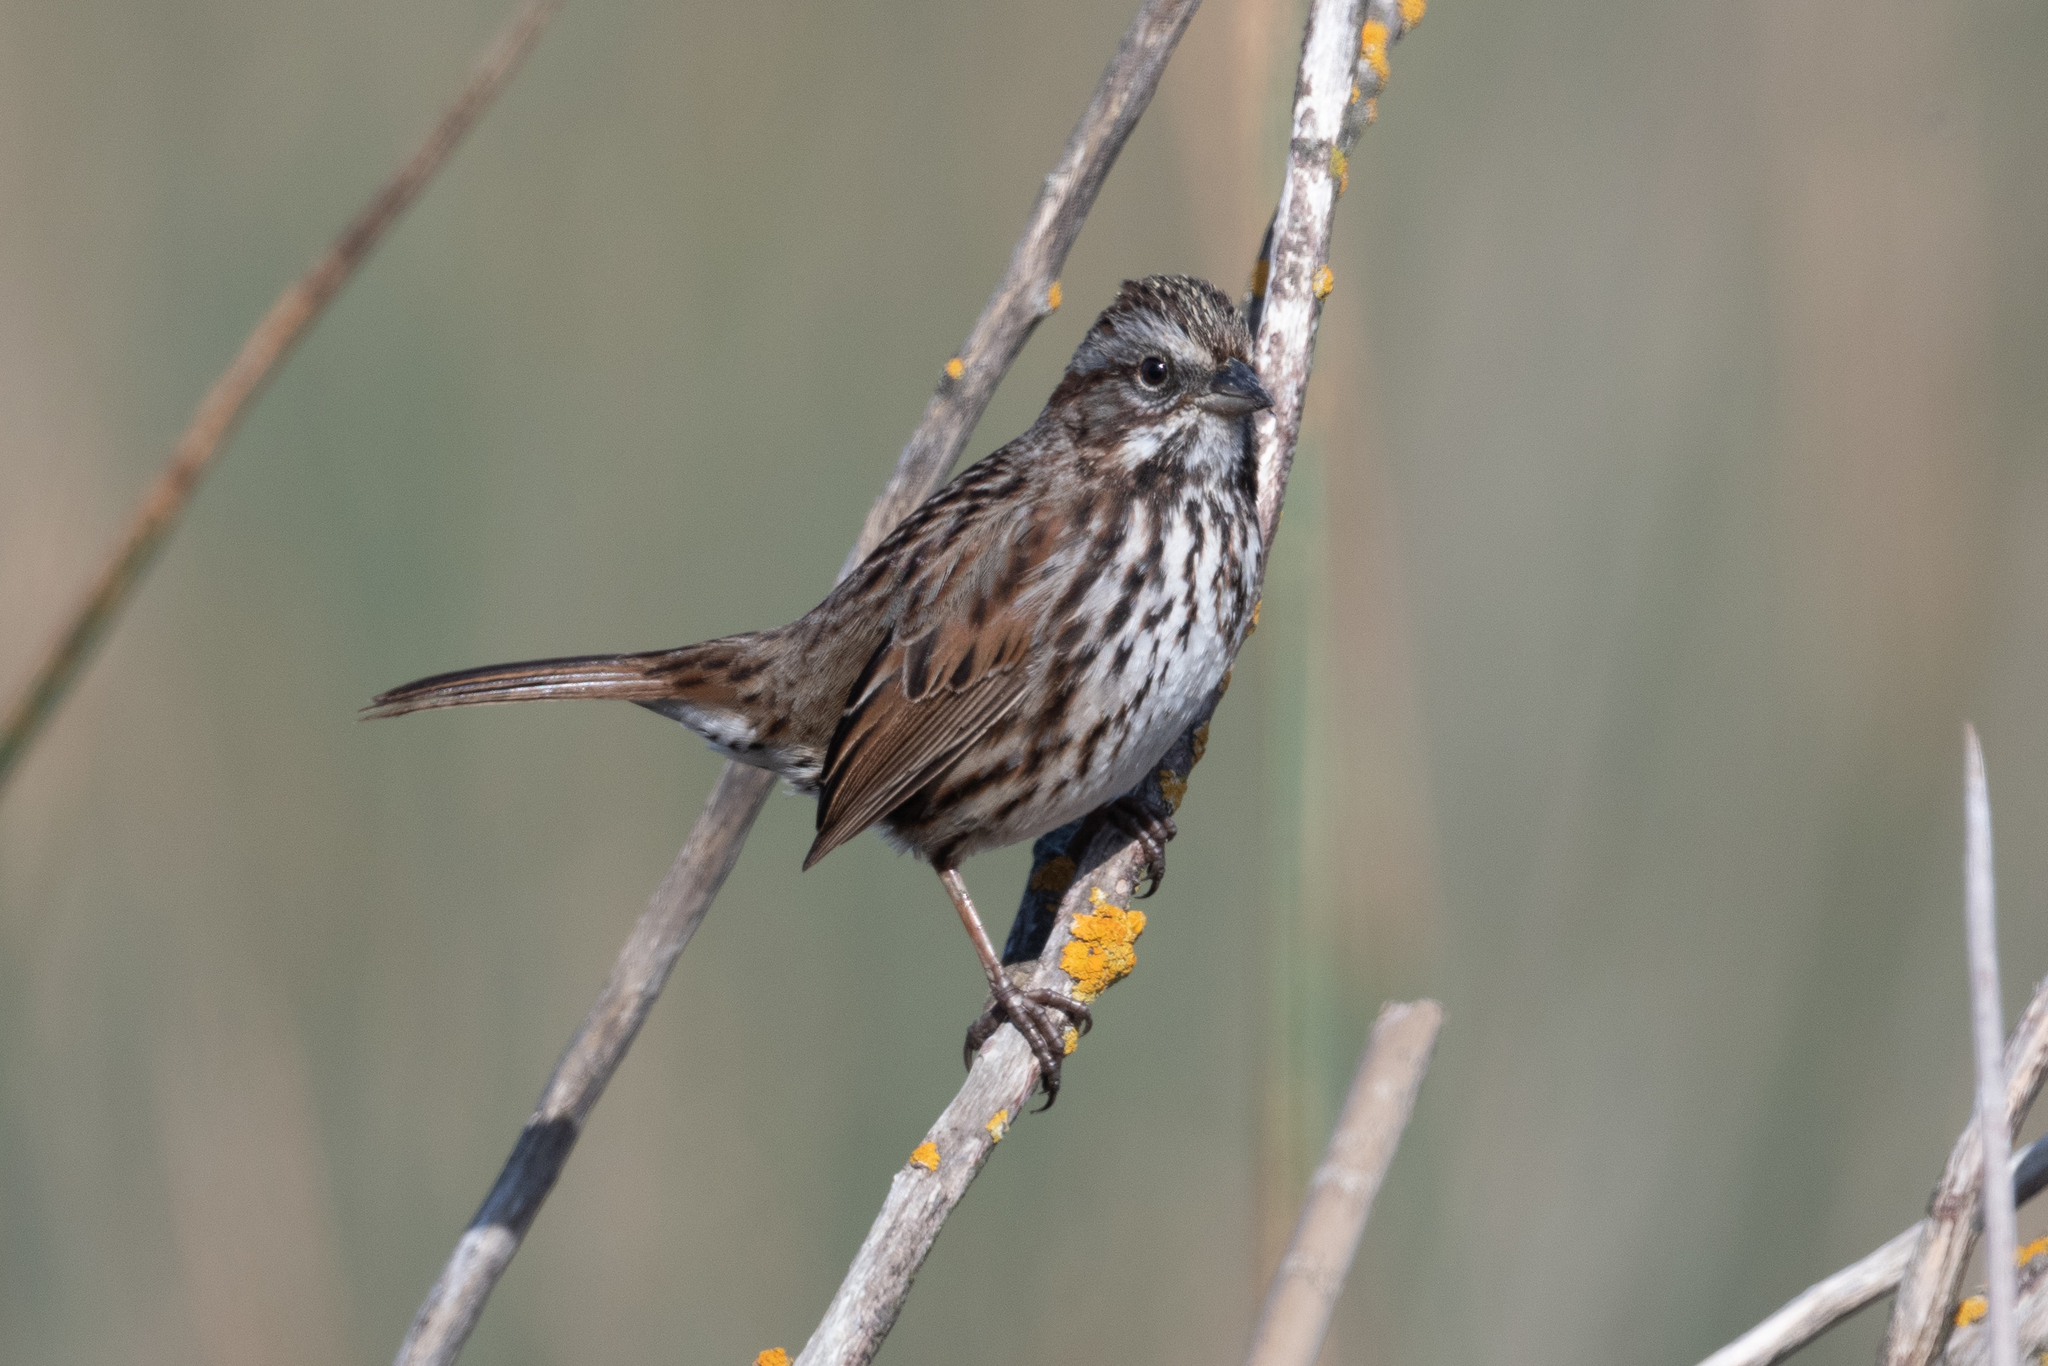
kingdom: Animalia
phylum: Chordata
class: Aves
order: Passeriformes
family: Passerellidae
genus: Melospiza
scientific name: Melospiza melodia
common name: Song sparrow
